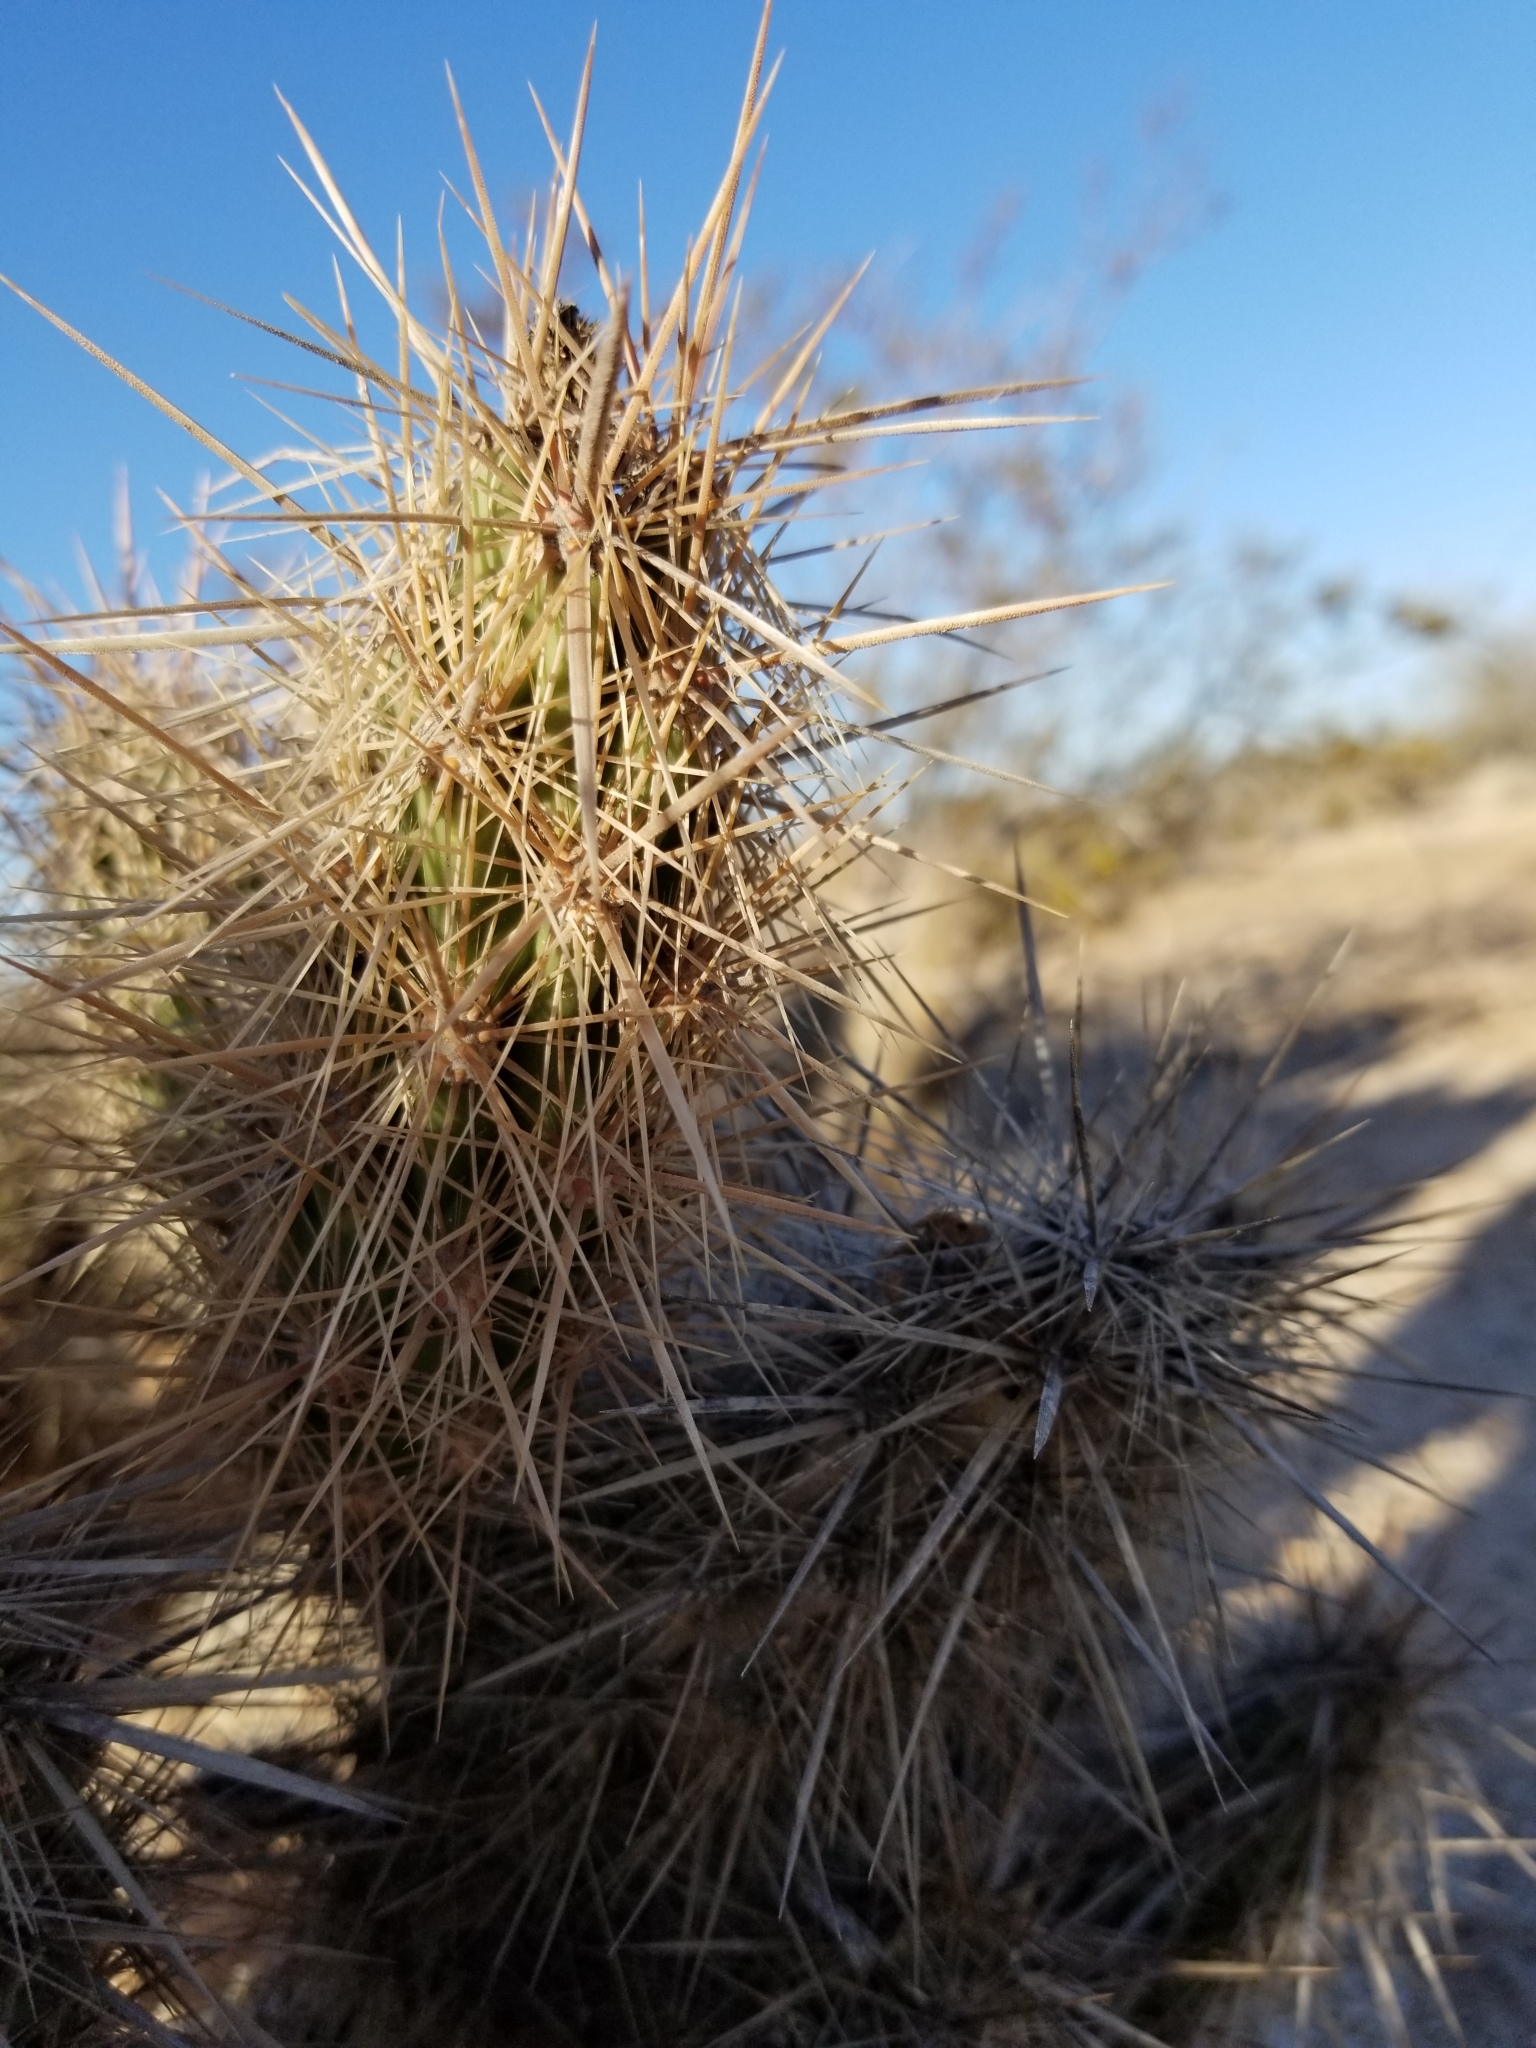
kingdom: Plantae
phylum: Tracheophyta
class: Magnoliopsida
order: Caryophyllales
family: Cactaceae
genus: Grusonia
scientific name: Grusonia kunzei
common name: Wright's club cholla
